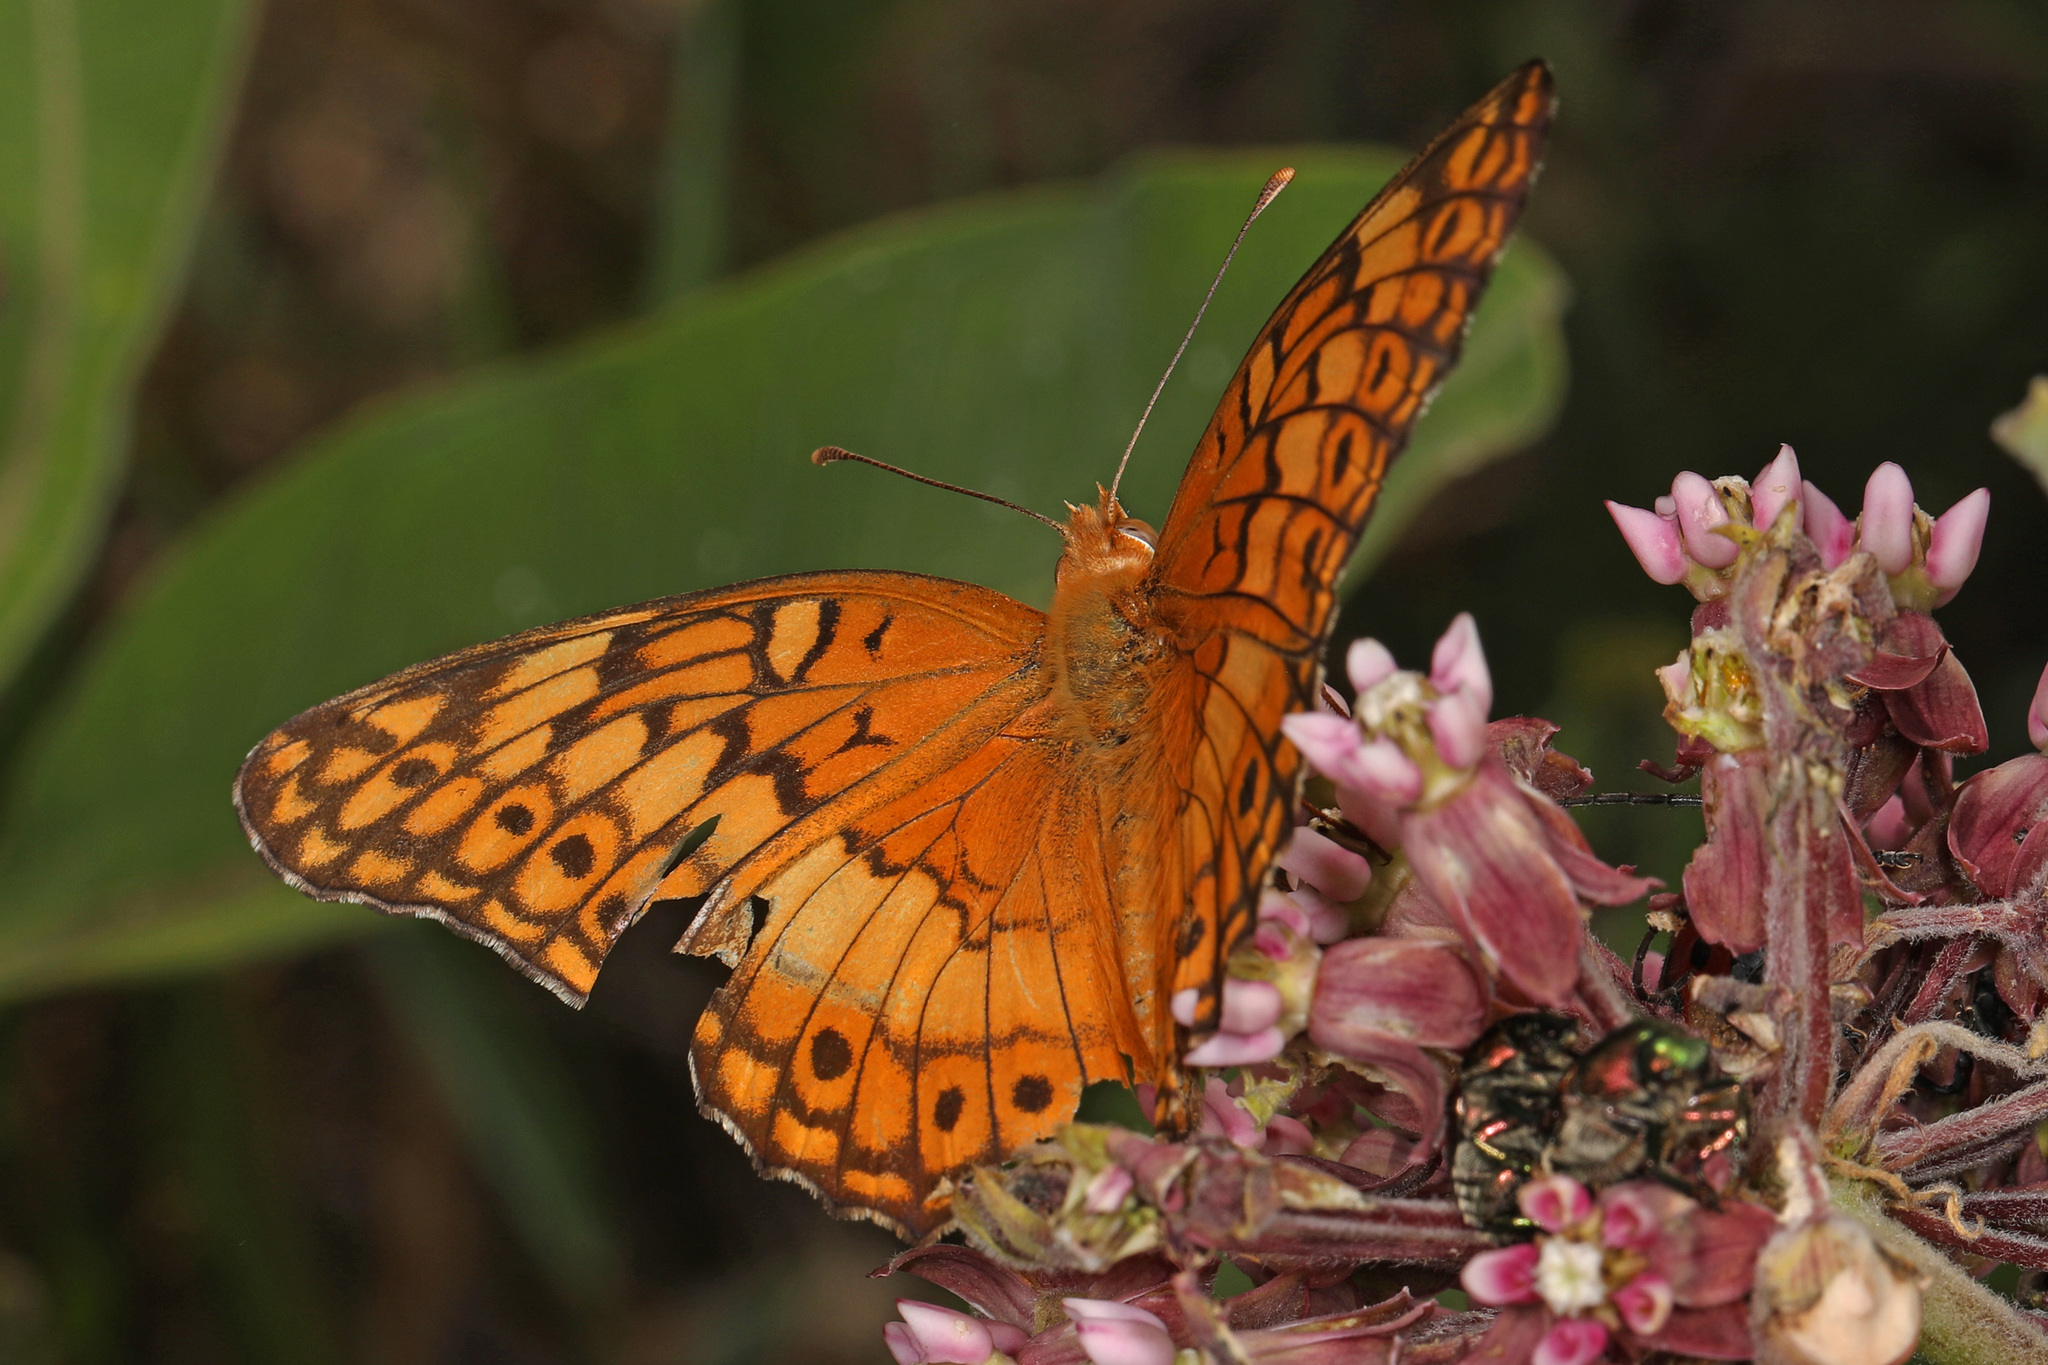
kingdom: Animalia
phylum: Arthropoda
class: Insecta
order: Lepidoptera
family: Nymphalidae
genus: Euptoieta
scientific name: Euptoieta claudia
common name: Variegated fritillary
